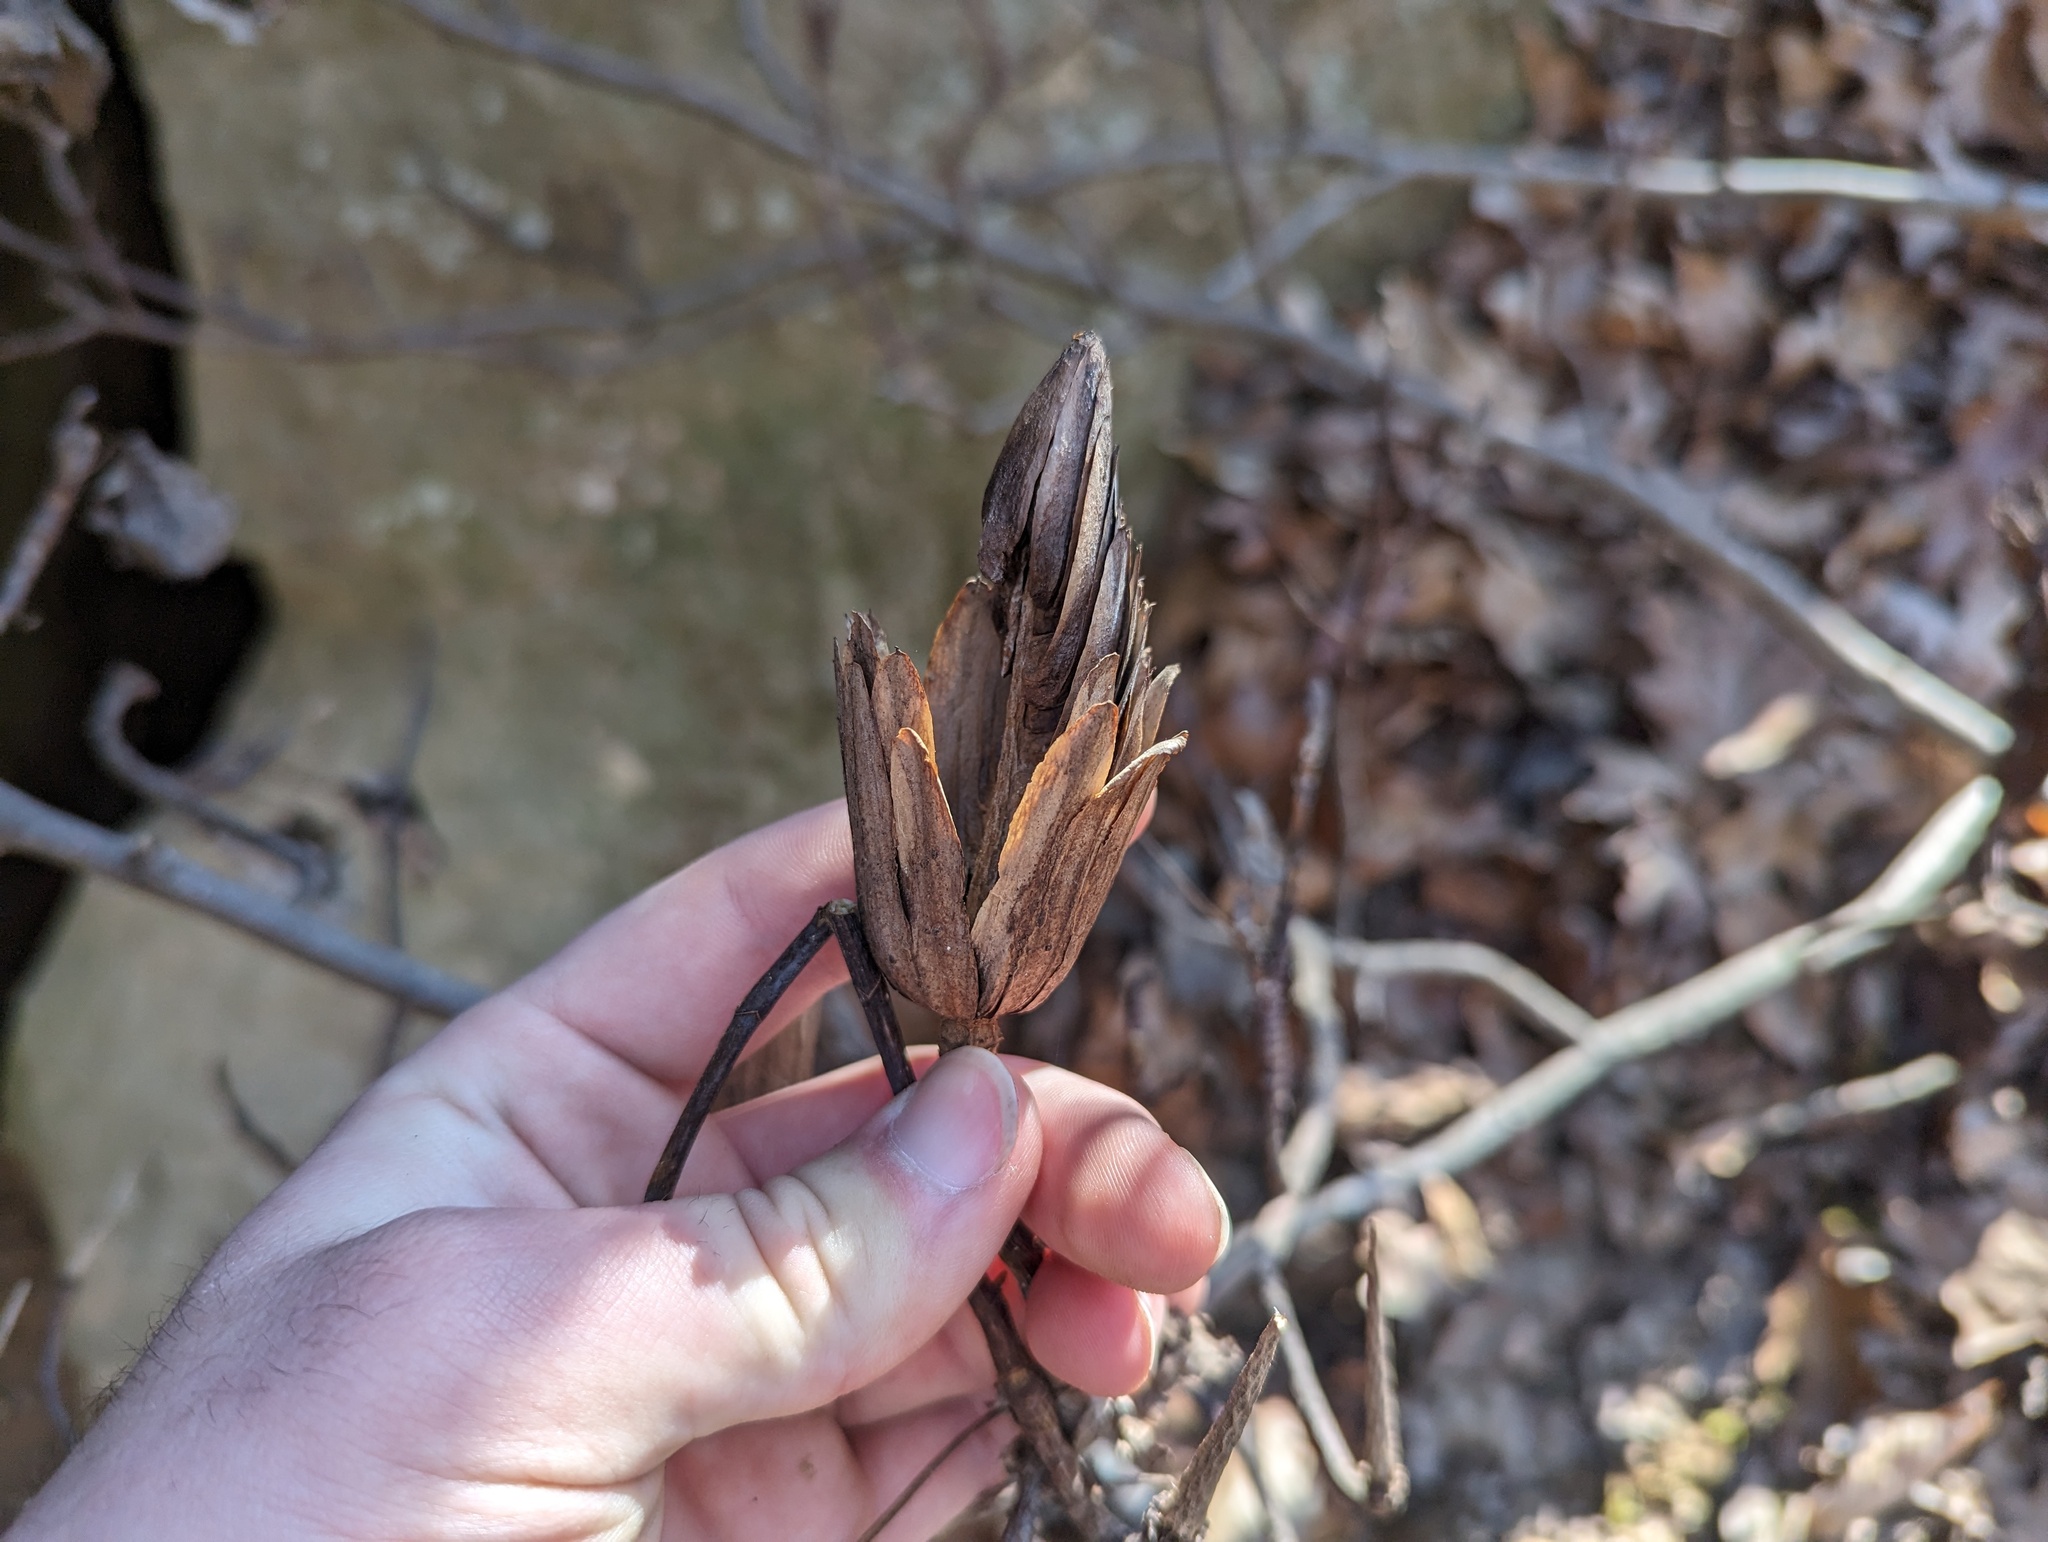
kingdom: Plantae
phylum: Tracheophyta
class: Magnoliopsida
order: Magnoliales
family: Magnoliaceae
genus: Liriodendron
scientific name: Liriodendron tulipifera
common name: Tulip tree
